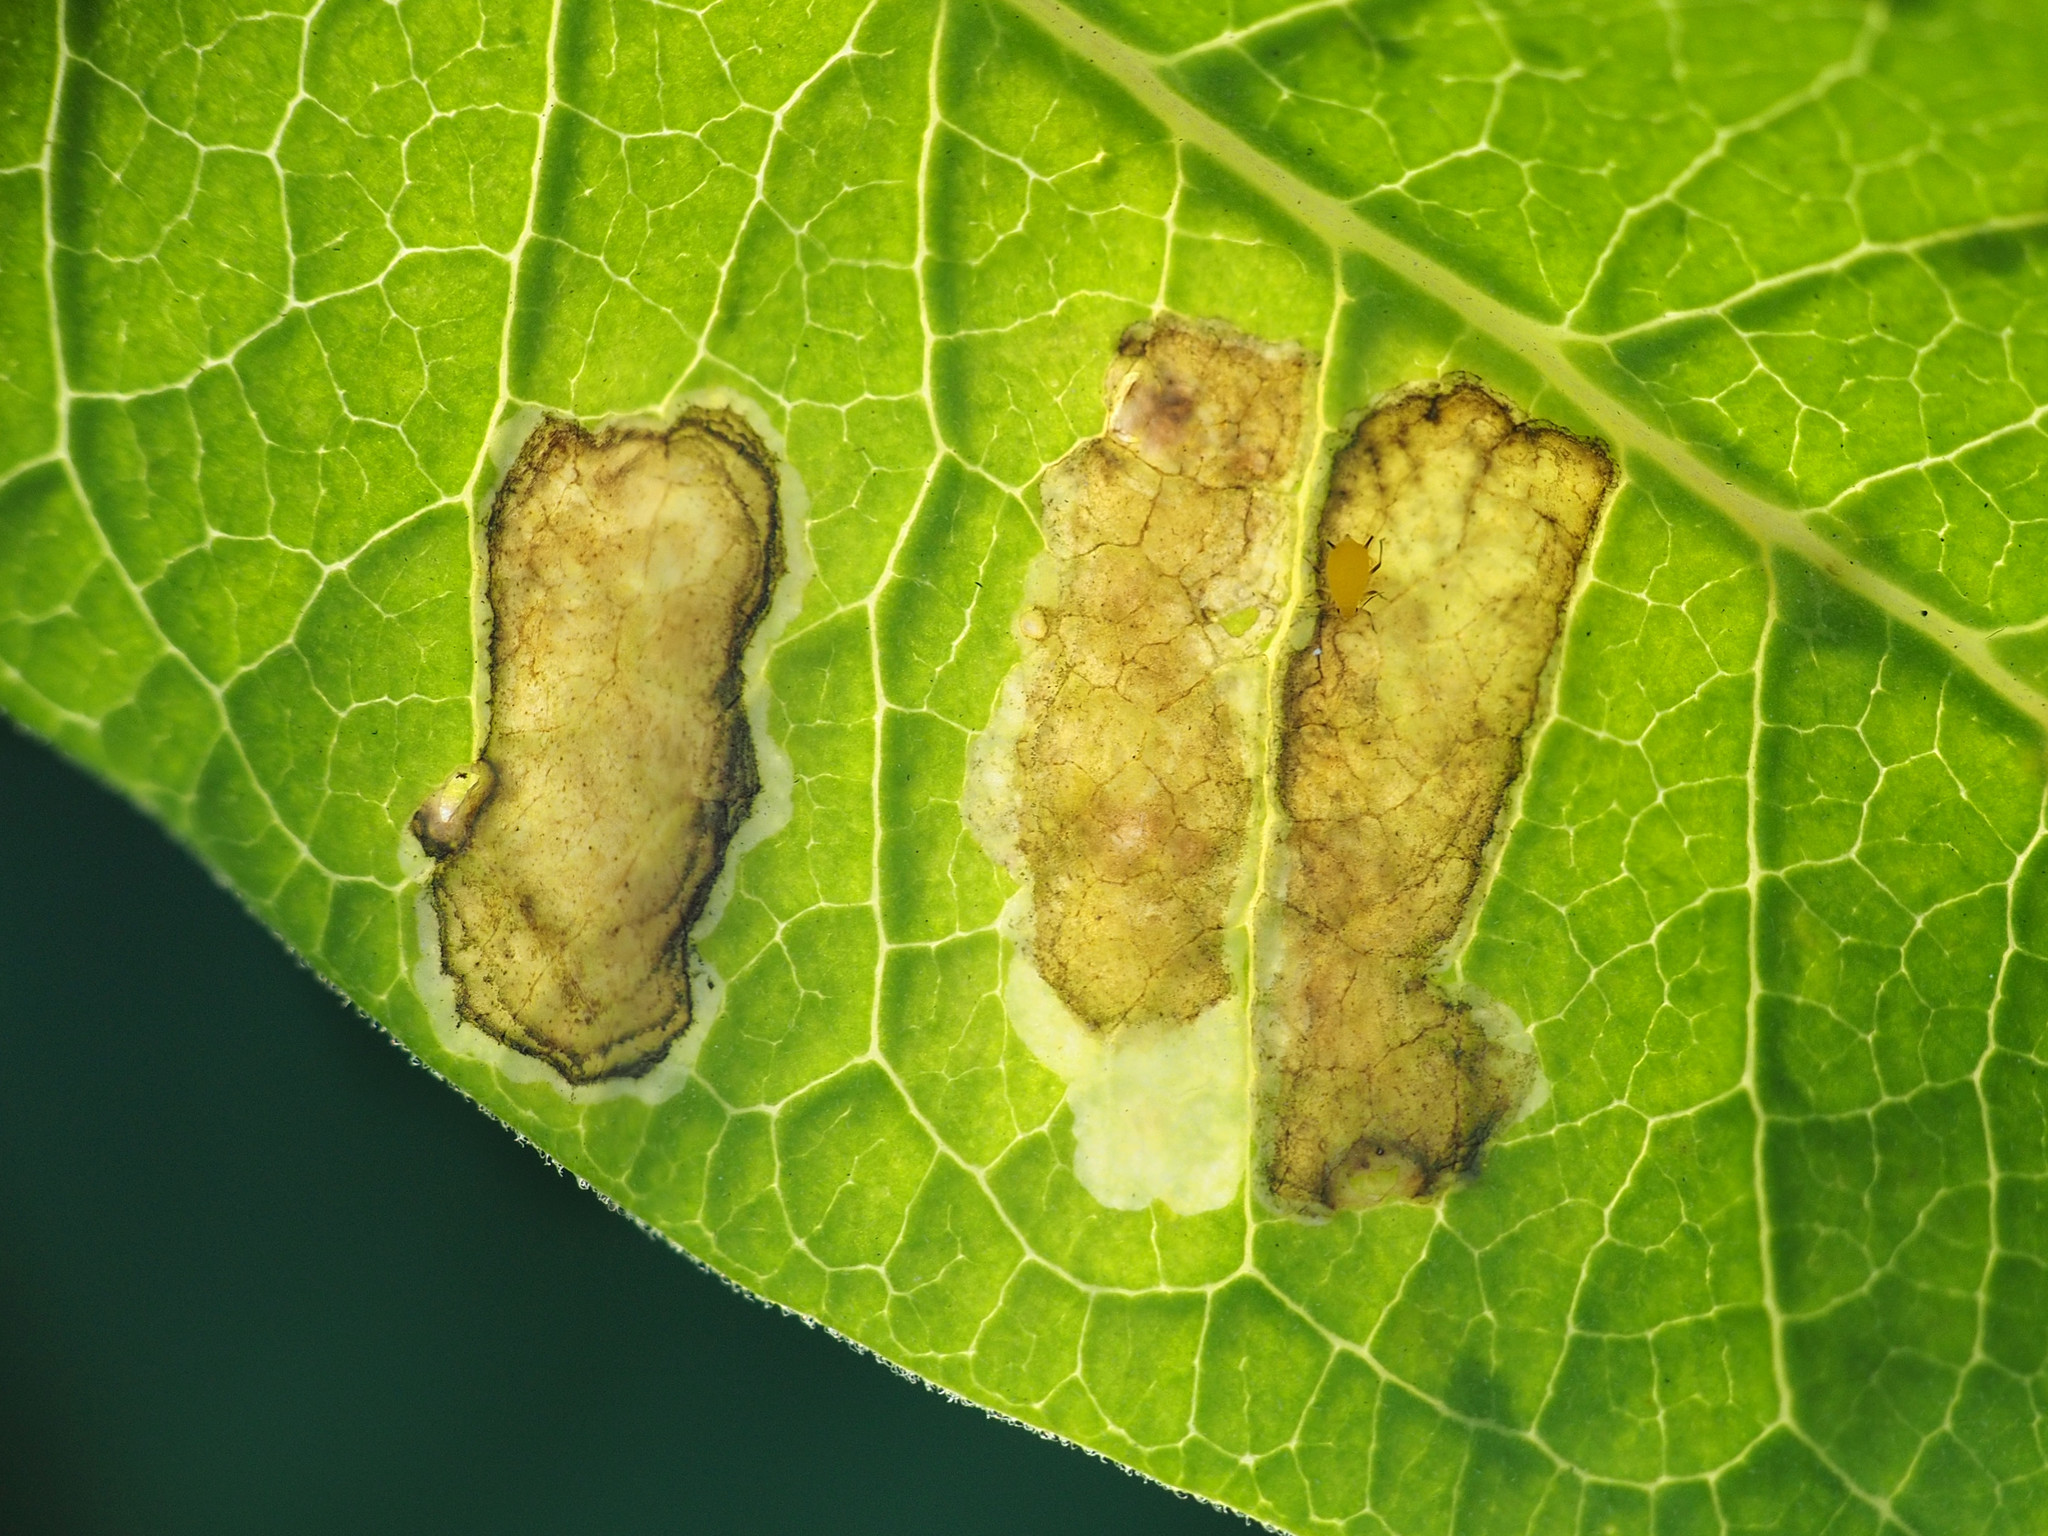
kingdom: Animalia
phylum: Arthropoda
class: Insecta
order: Diptera
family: Agromyzidae
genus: Liriomyza
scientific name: Liriomyza asclepiadis
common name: Milkweed leaf-miner fly
